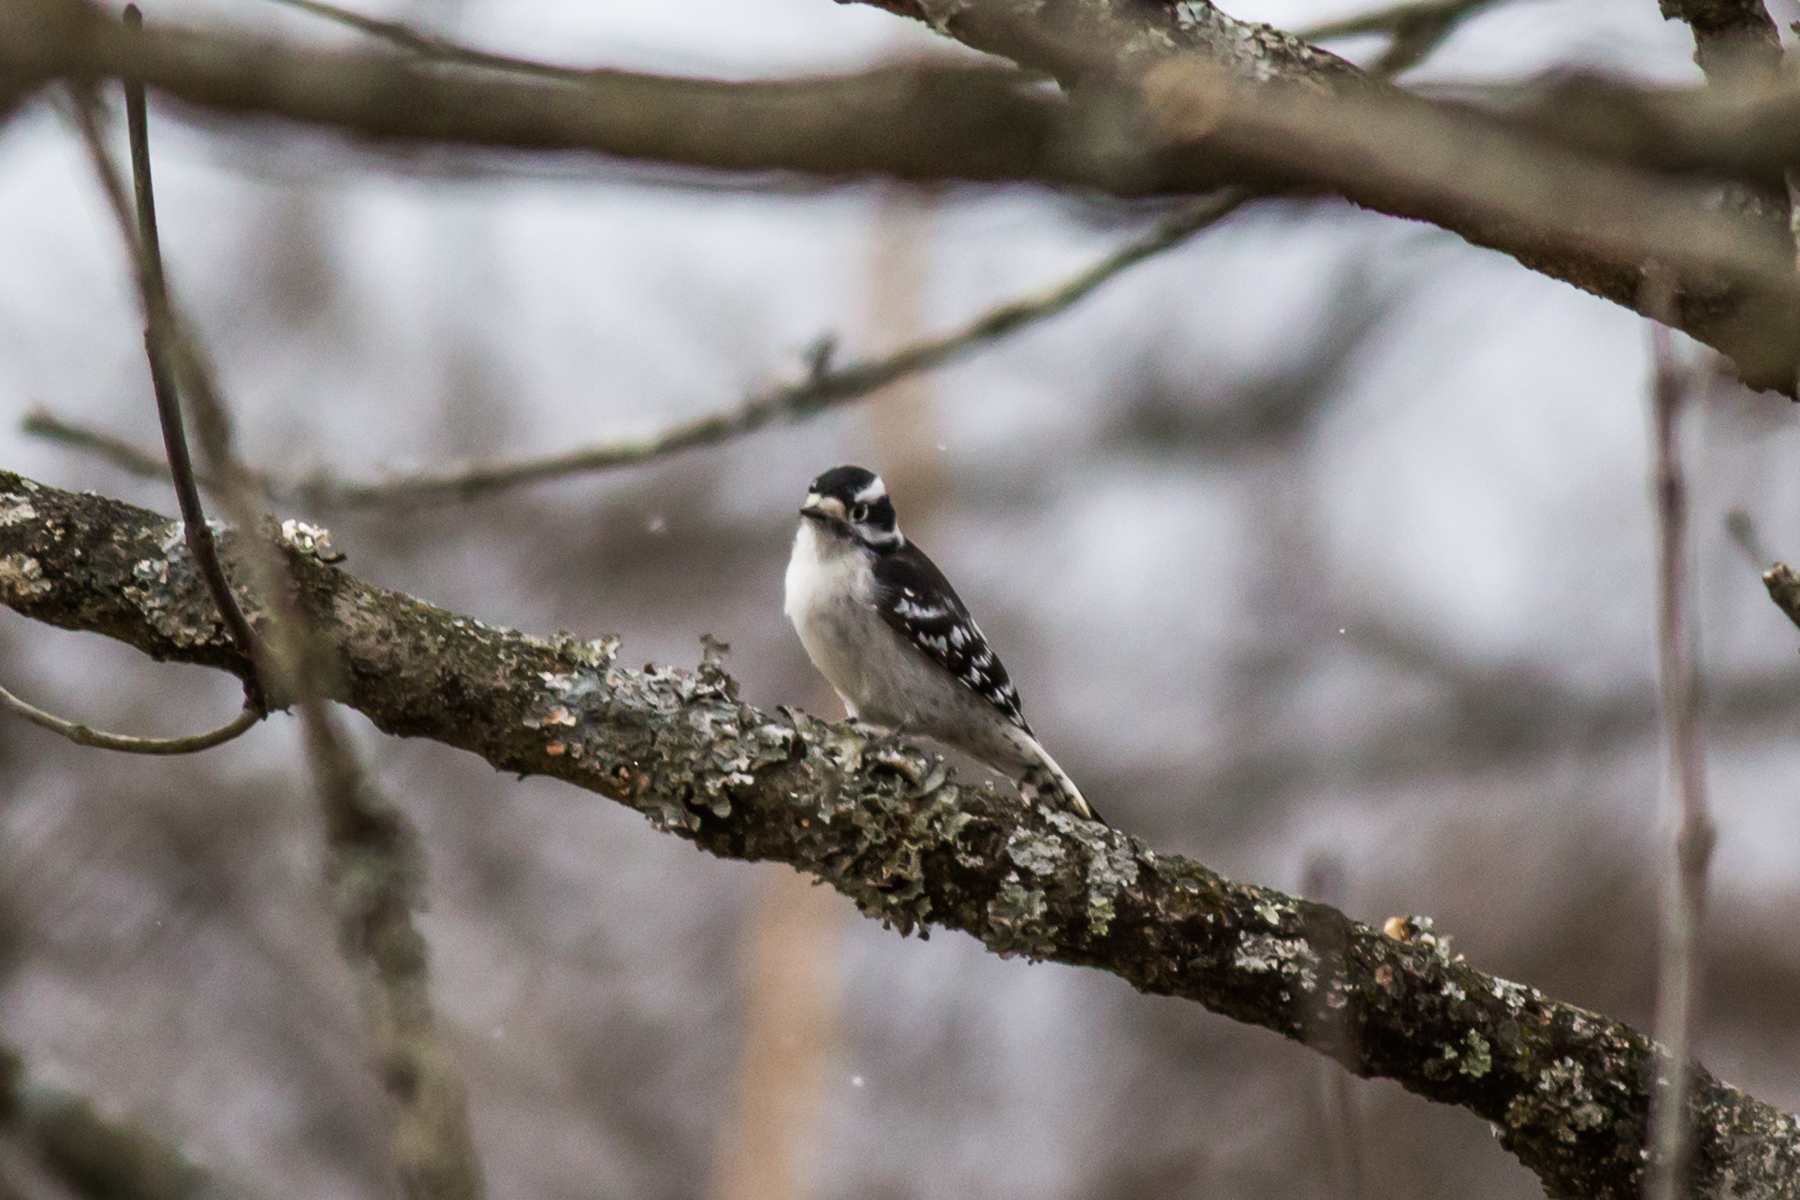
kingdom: Animalia
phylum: Chordata
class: Aves
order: Piciformes
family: Picidae
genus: Dryobates
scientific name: Dryobates pubescens
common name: Downy woodpecker
